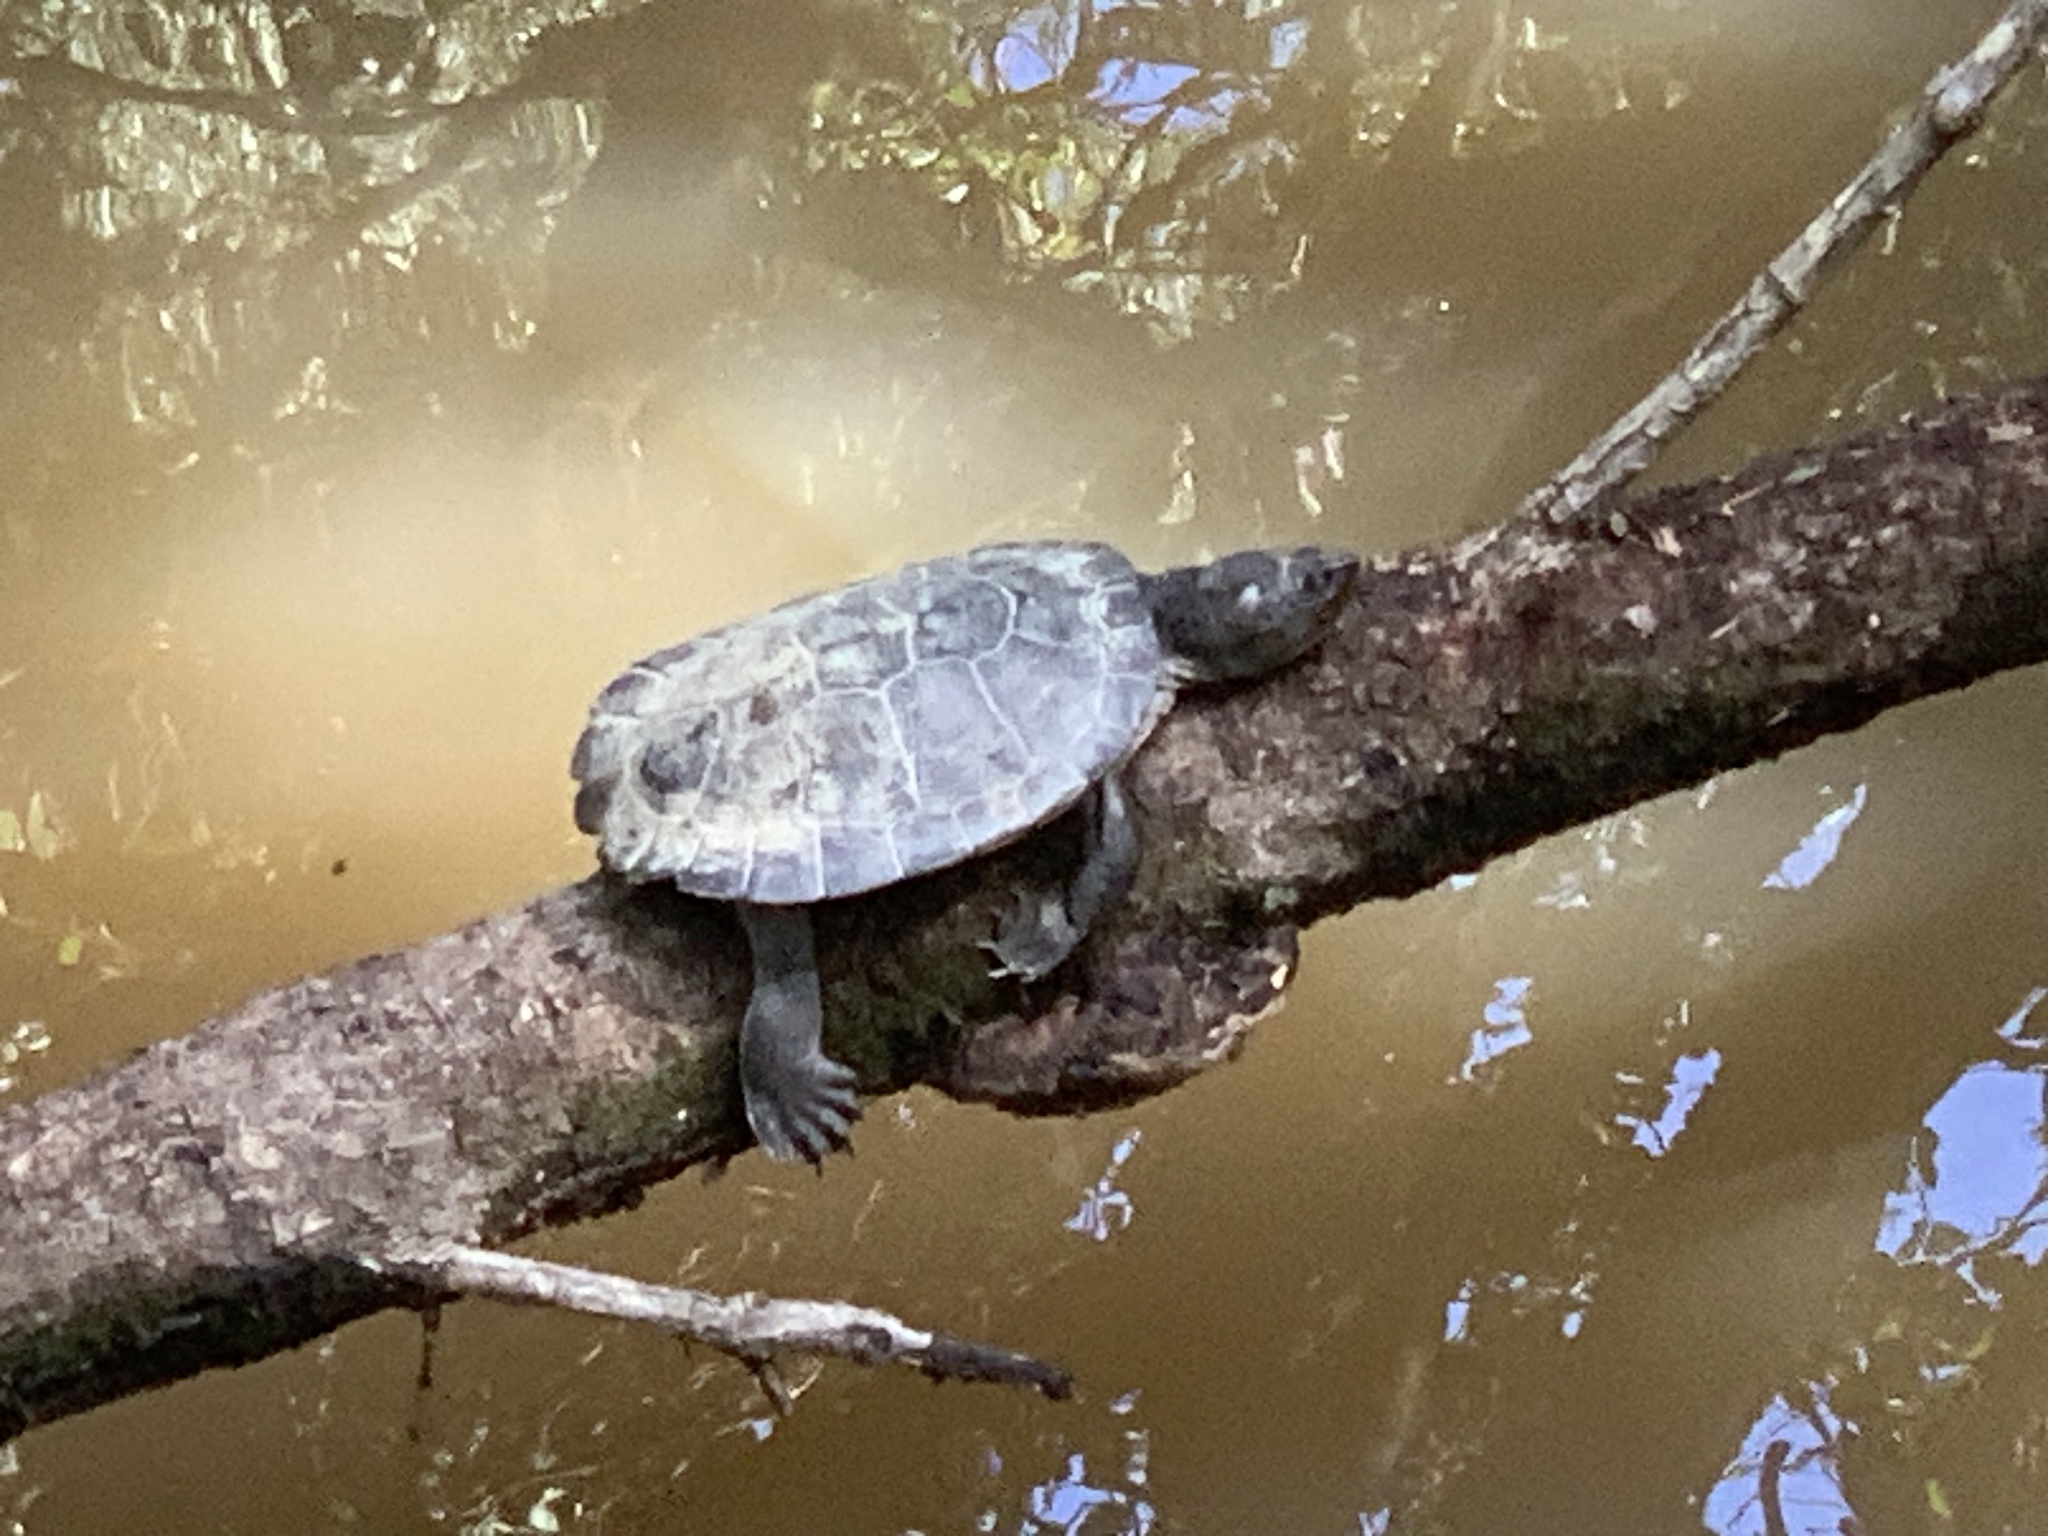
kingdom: Animalia
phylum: Chordata
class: Testudines
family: Chelidae
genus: Myuchelys
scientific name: Myuchelys latisternum
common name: Serrated snapping turtle
